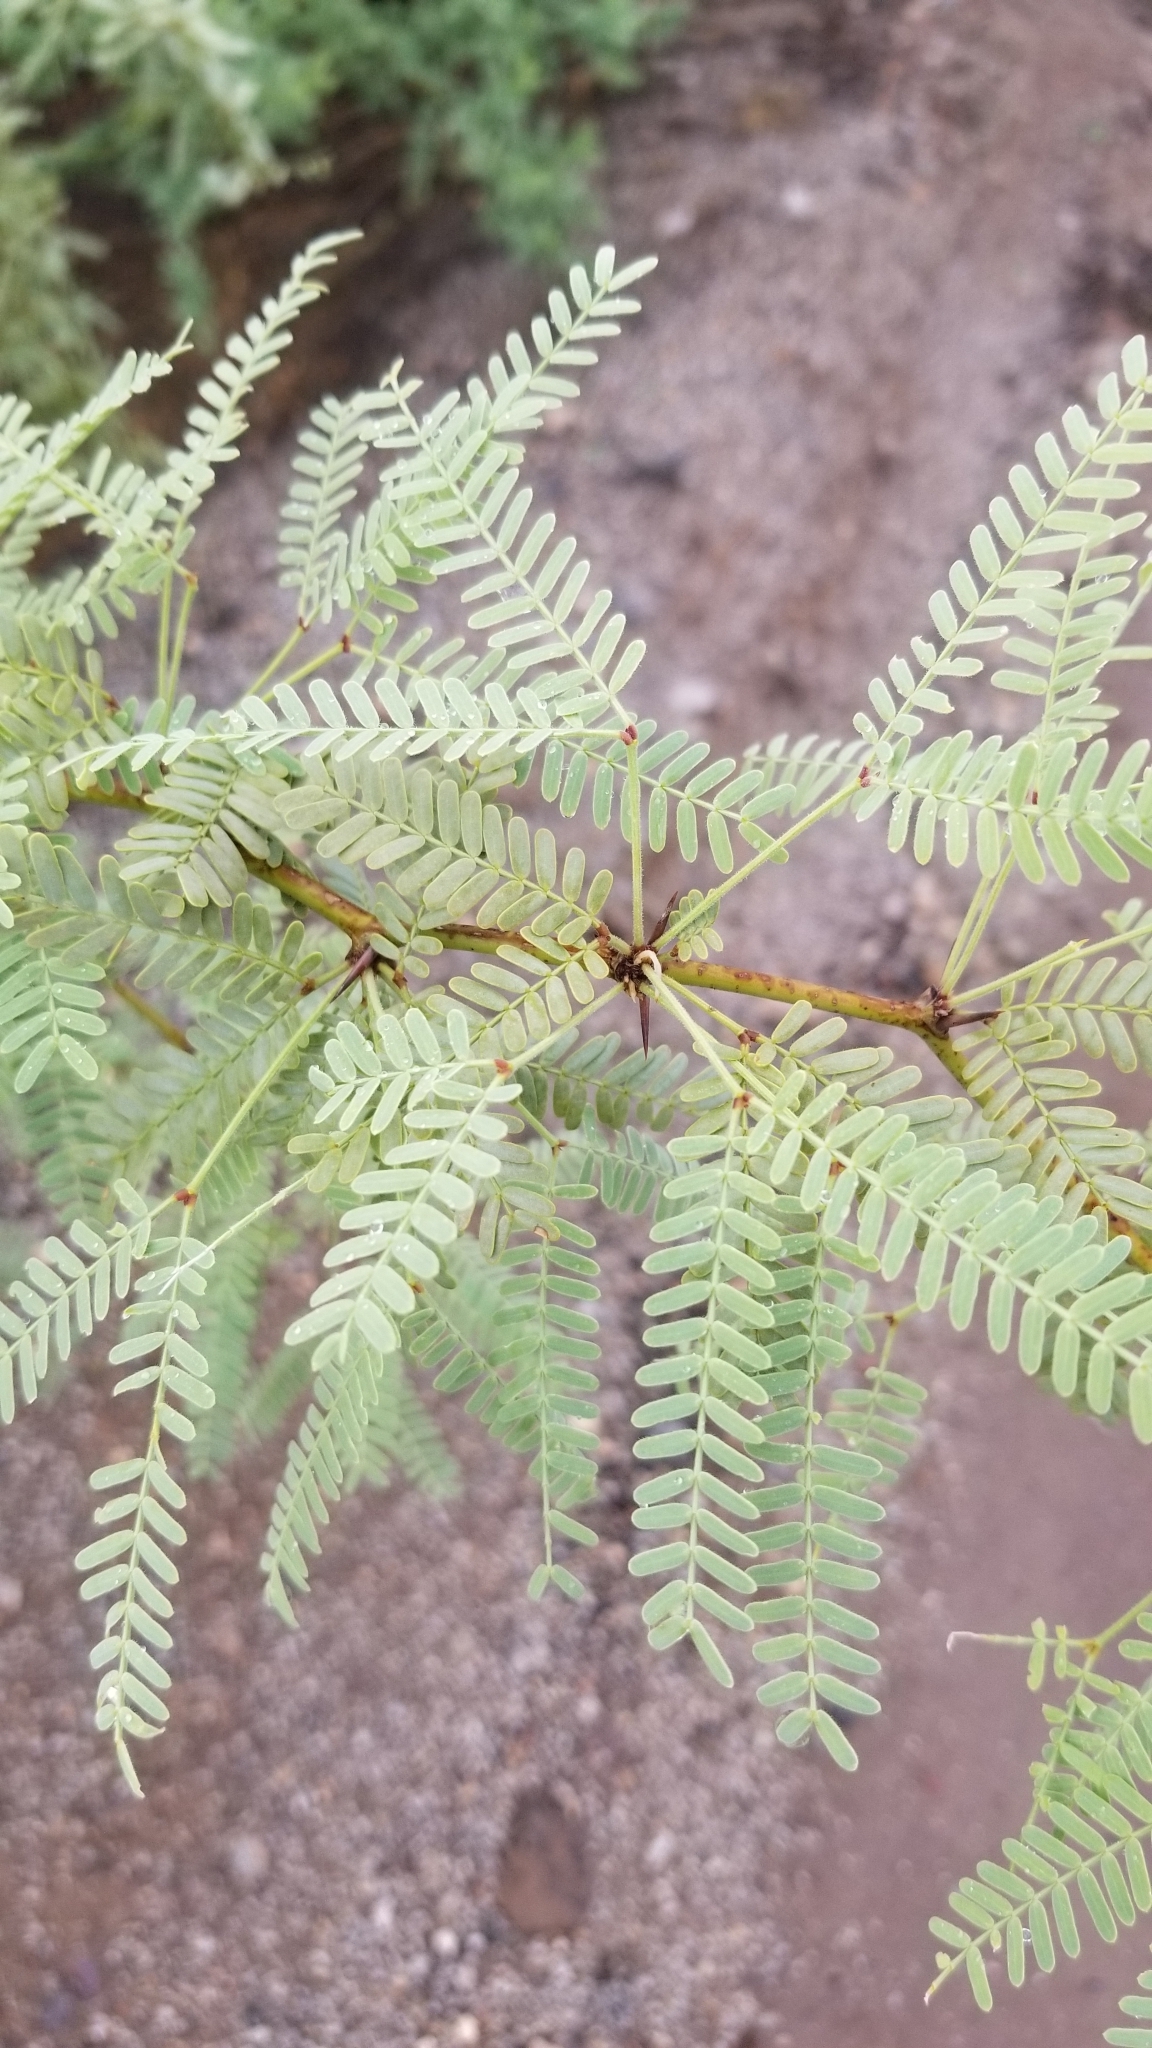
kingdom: Plantae
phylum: Tracheophyta
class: Magnoliopsida
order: Fabales
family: Fabaceae
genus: Prosopis
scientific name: Prosopis velutina
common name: Velvet mesquite
